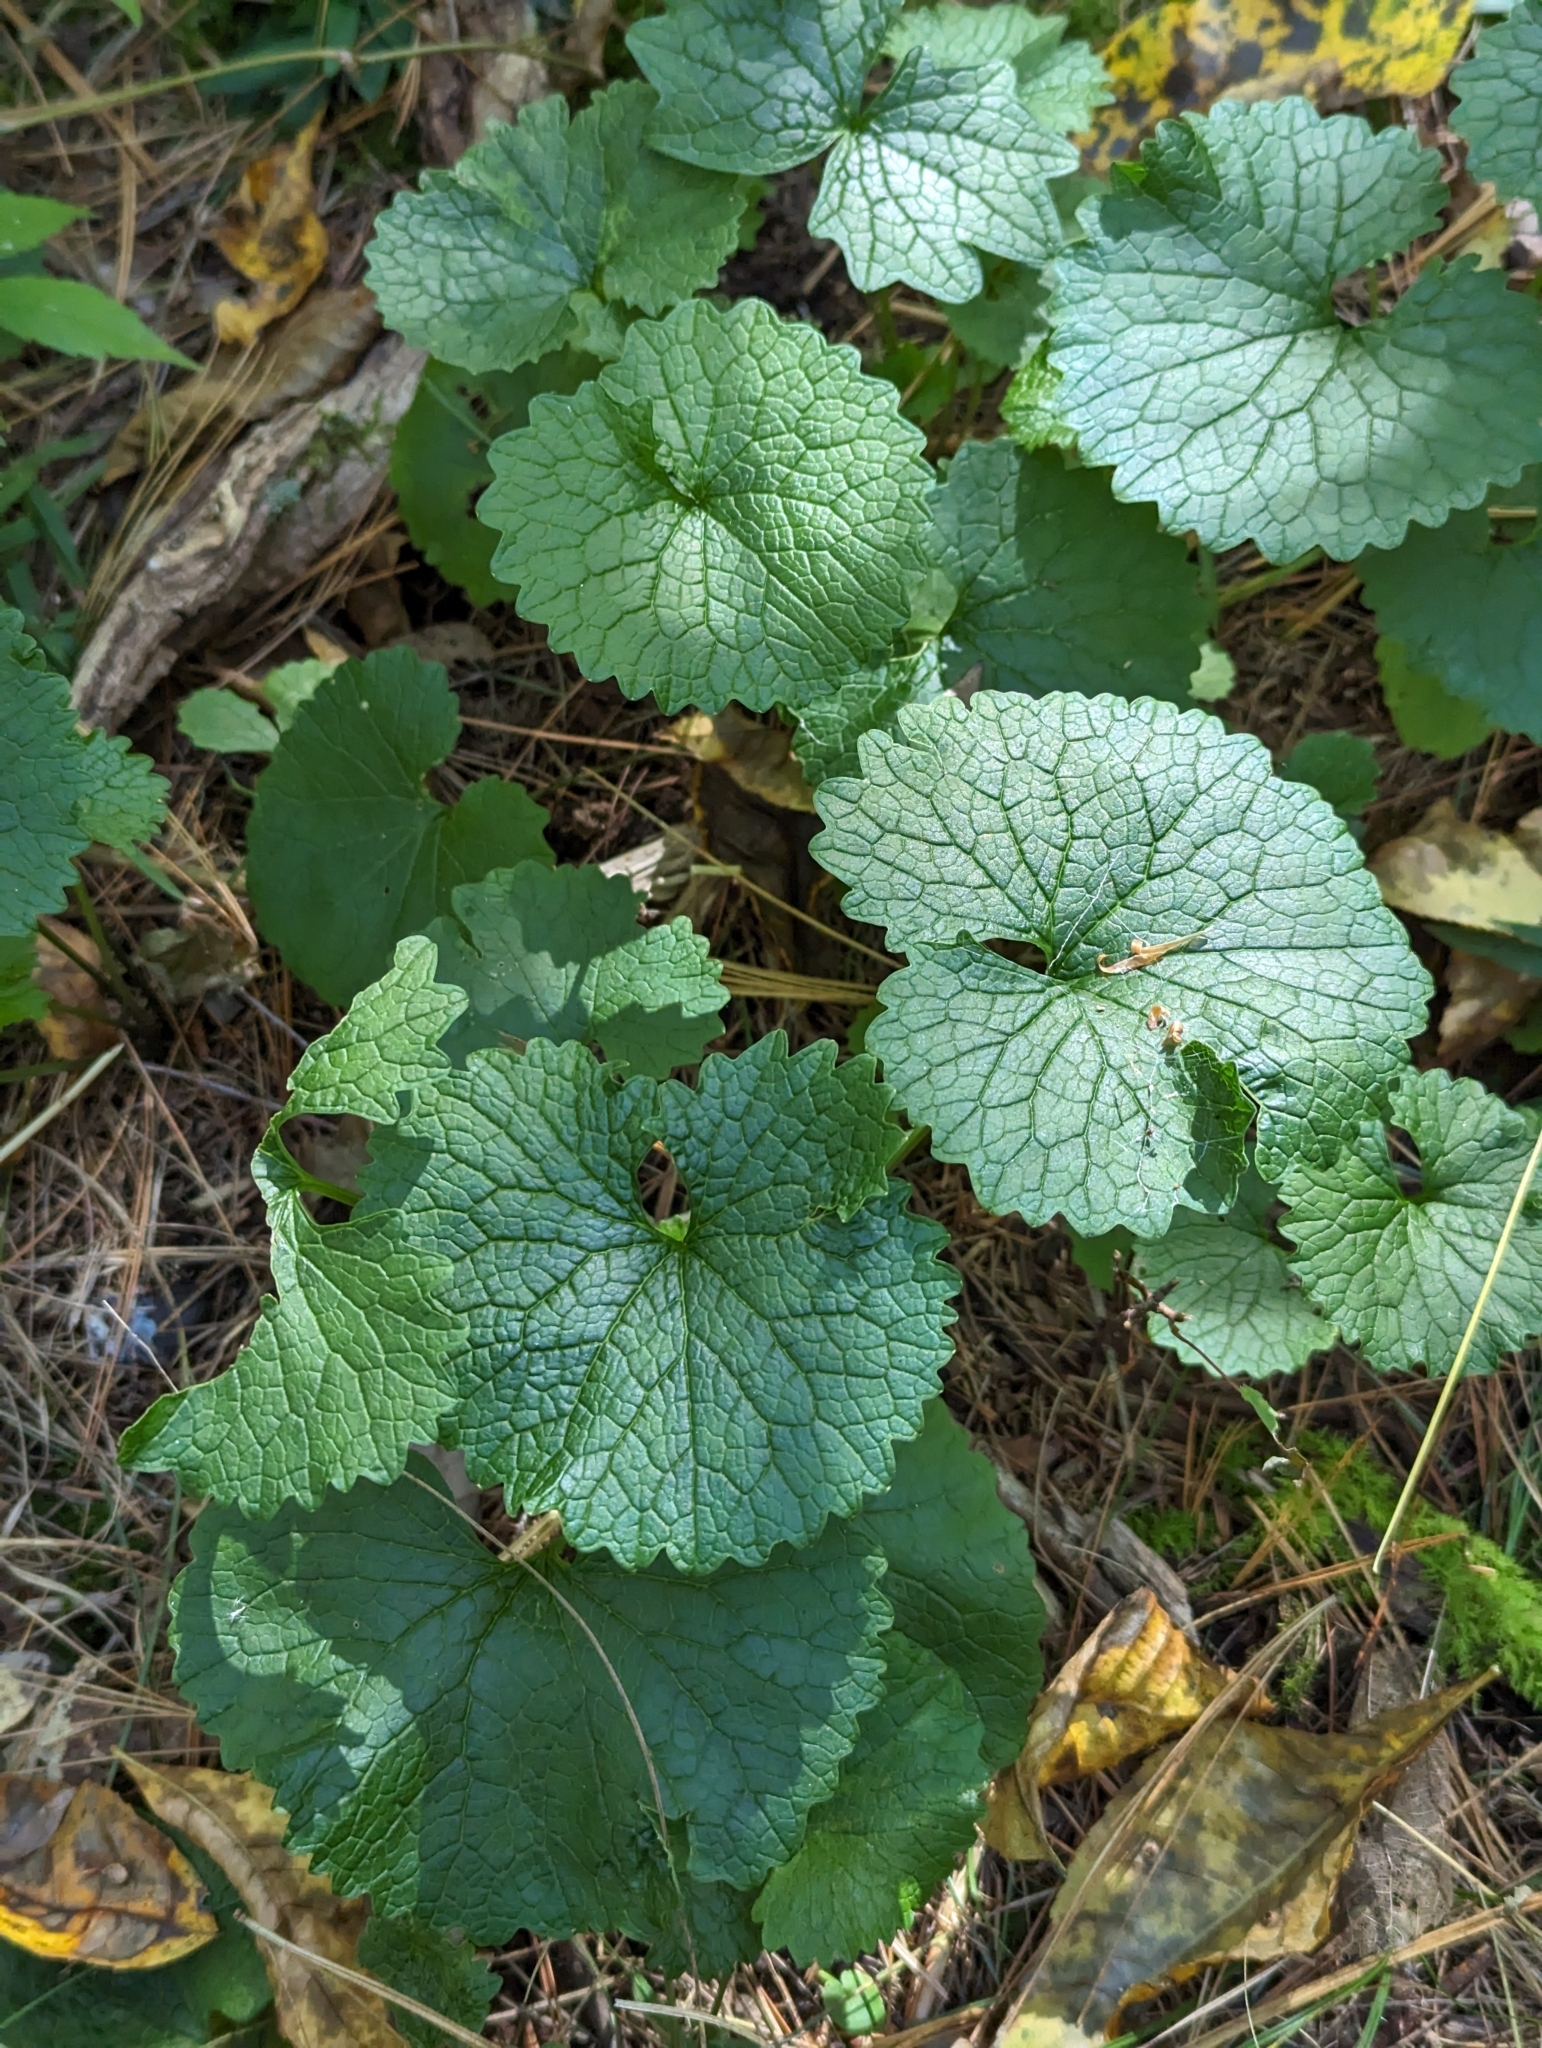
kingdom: Plantae
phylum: Tracheophyta
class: Magnoliopsida
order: Brassicales
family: Brassicaceae
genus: Alliaria
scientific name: Alliaria petiolata
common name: Garlic mustard
